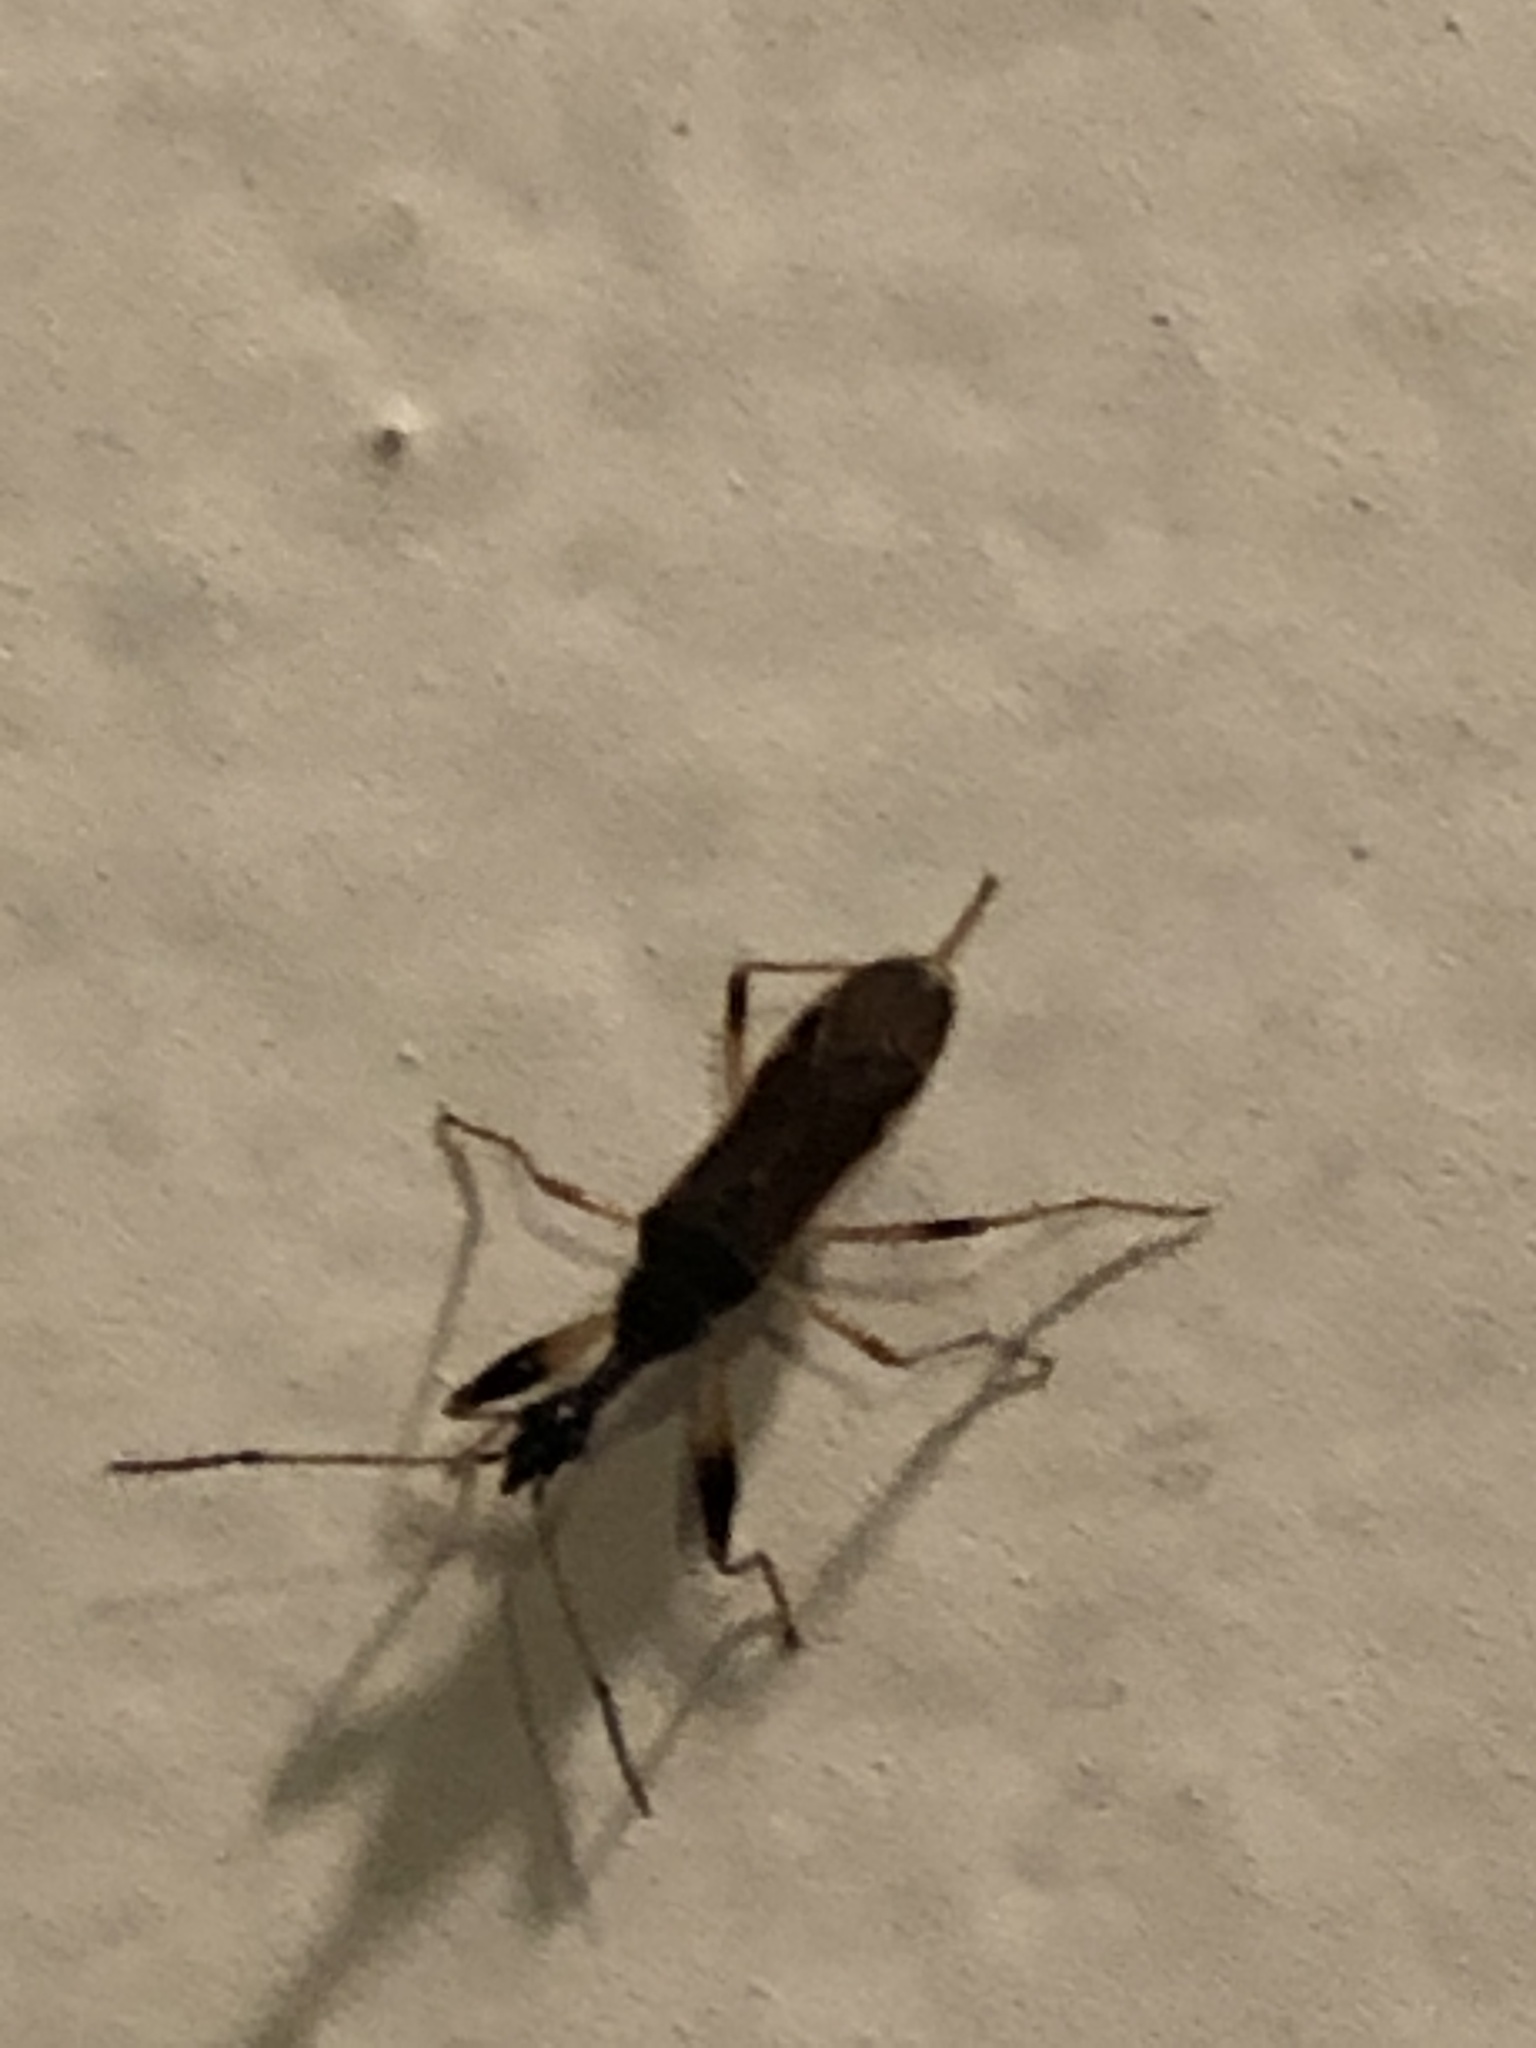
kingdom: Animalia
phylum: Arthropoda
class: Insecta
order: Hemiptera
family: Rhyparochromidae
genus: Myodocha
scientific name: Myodocha serripes
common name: Long-necked seed bug
